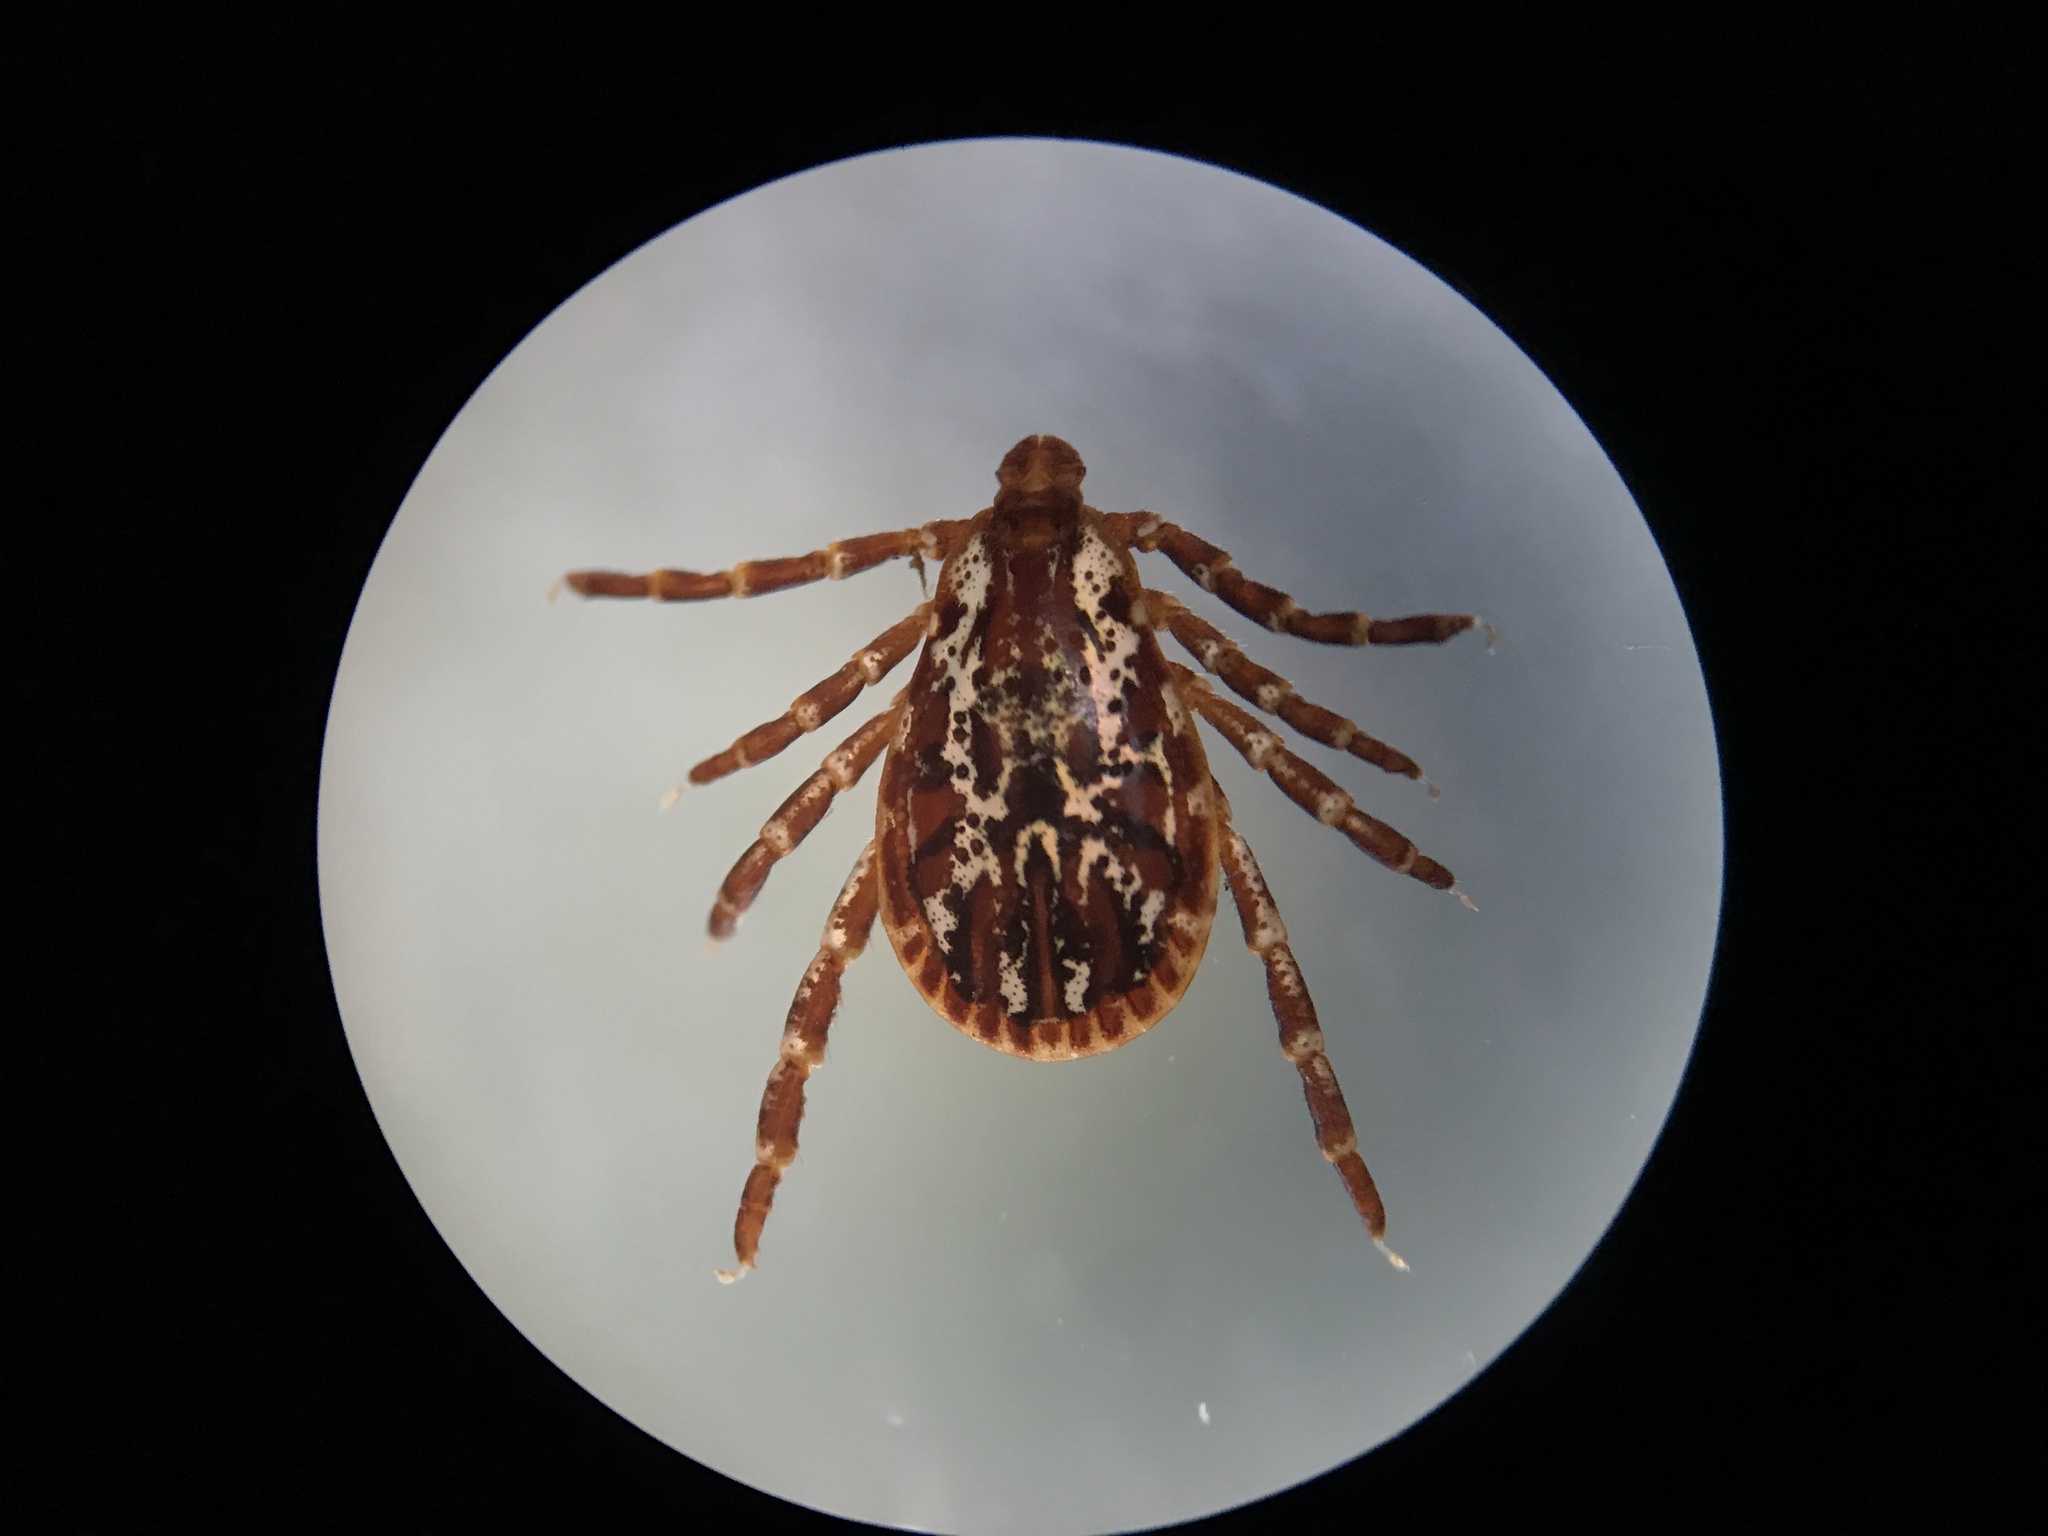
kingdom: Animalia
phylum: Arthropoda
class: Arachnida
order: Ixodida
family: Ixodidae
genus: Dermacentor
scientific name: Dermacentor variabilis
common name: American dog tick
